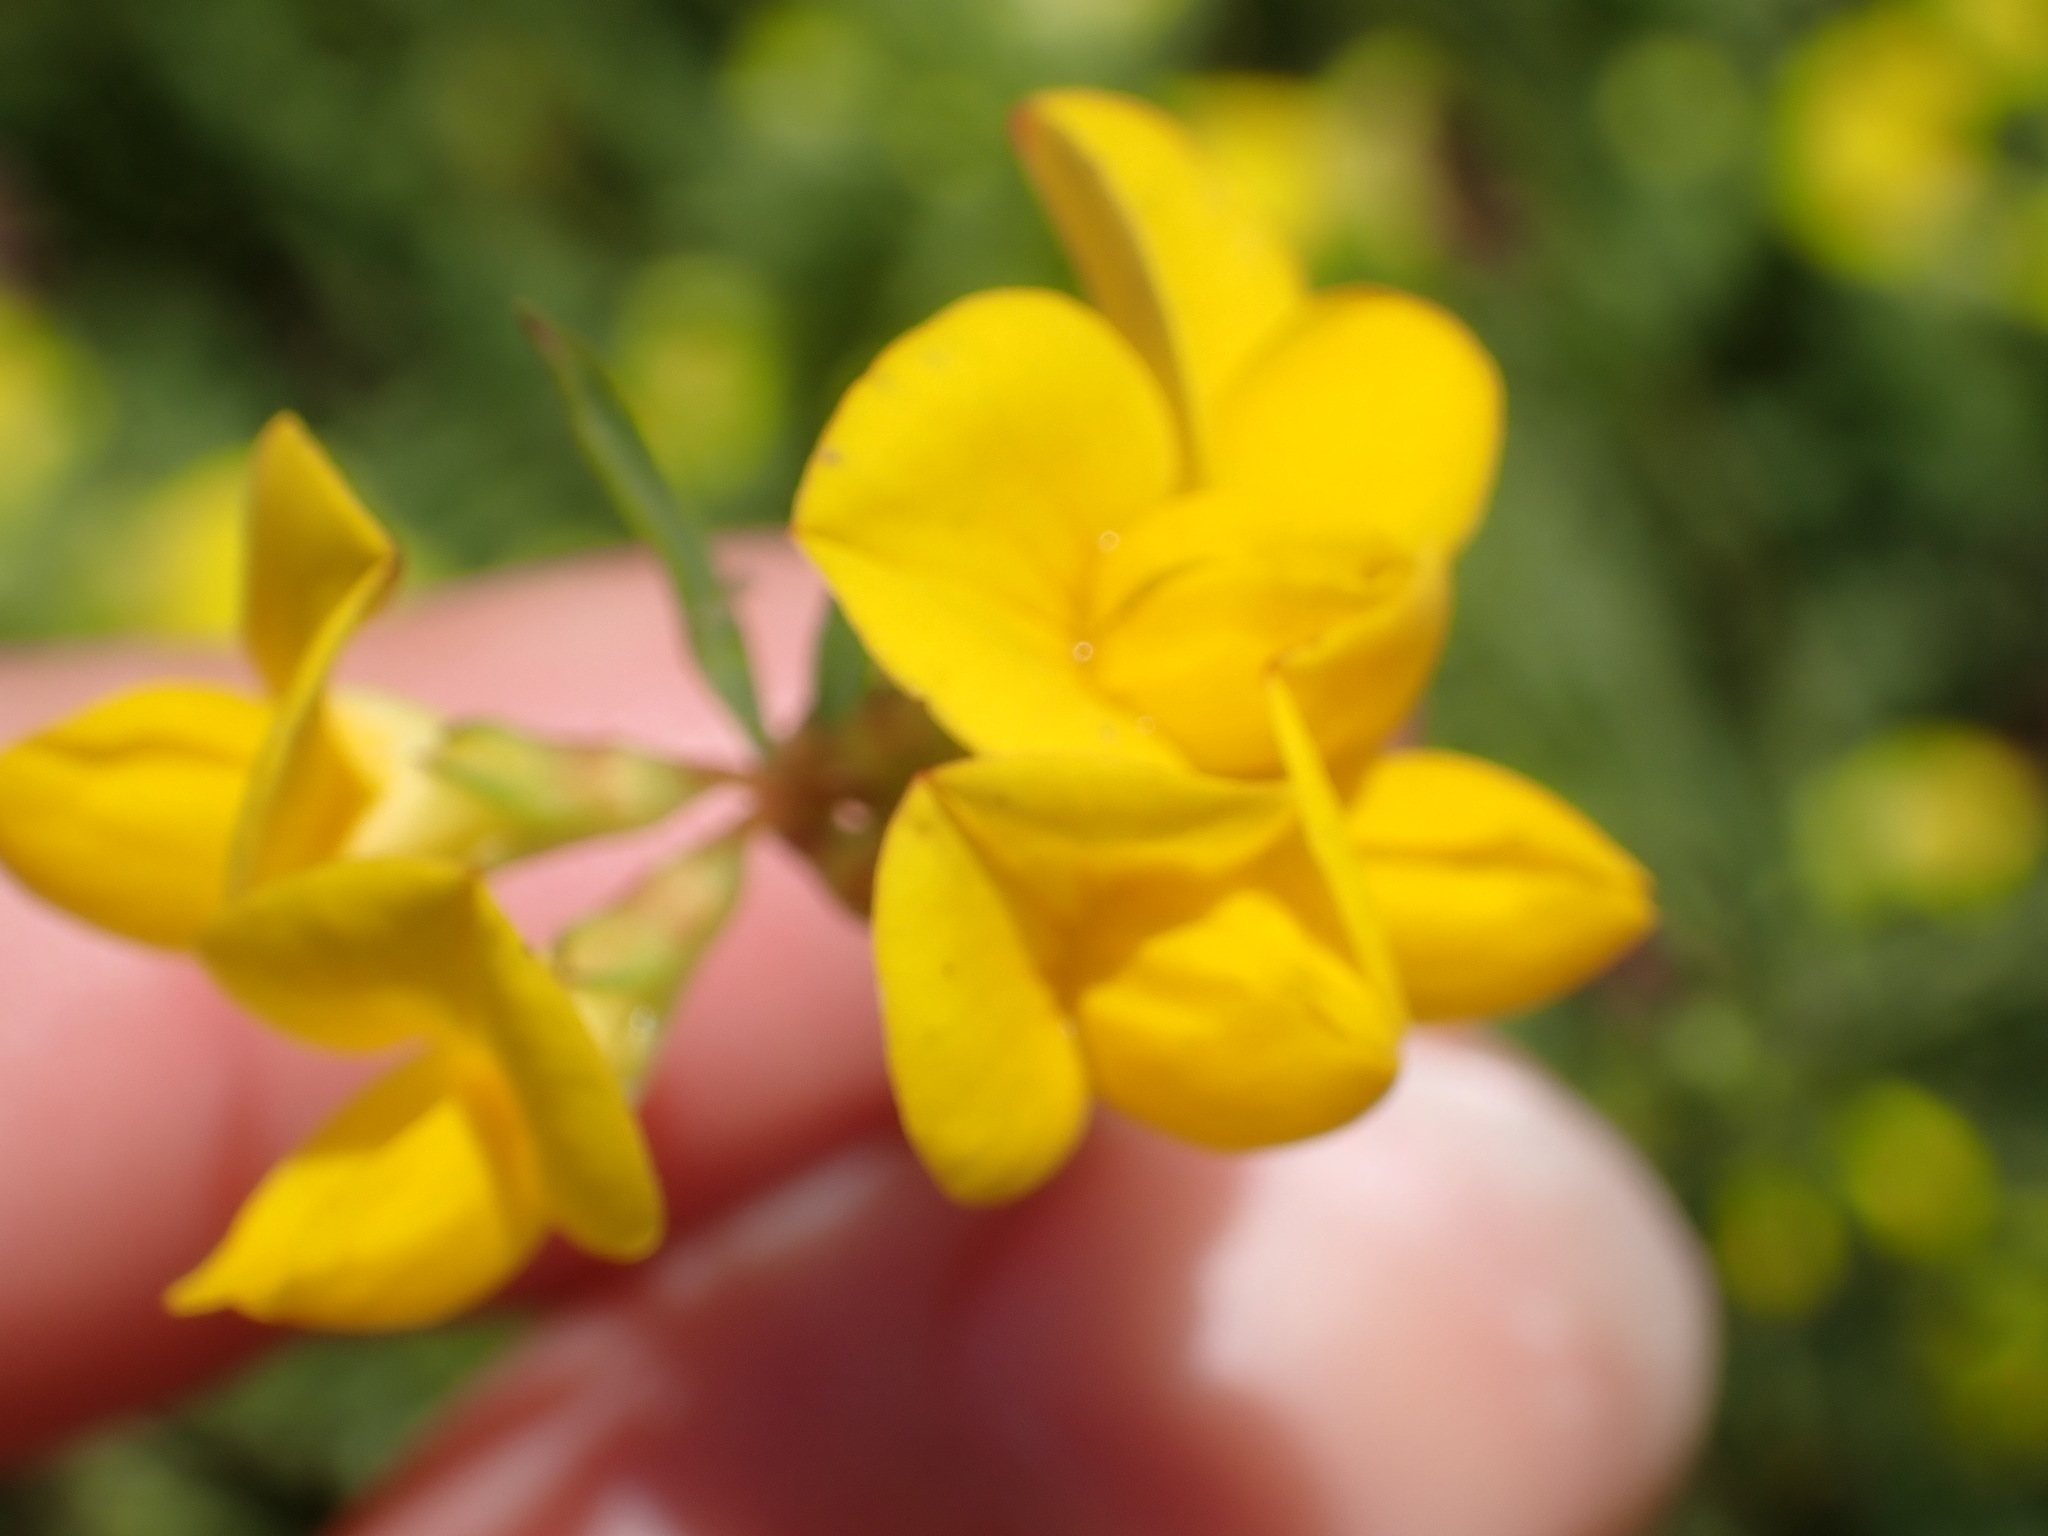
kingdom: Plantae
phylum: Tracheophyta
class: Magnoliopsida
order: Fabales
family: Fabaceae
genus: Lotus
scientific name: Lotus tenuis
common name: Narrow-leaved bird's-foot-trefoil
